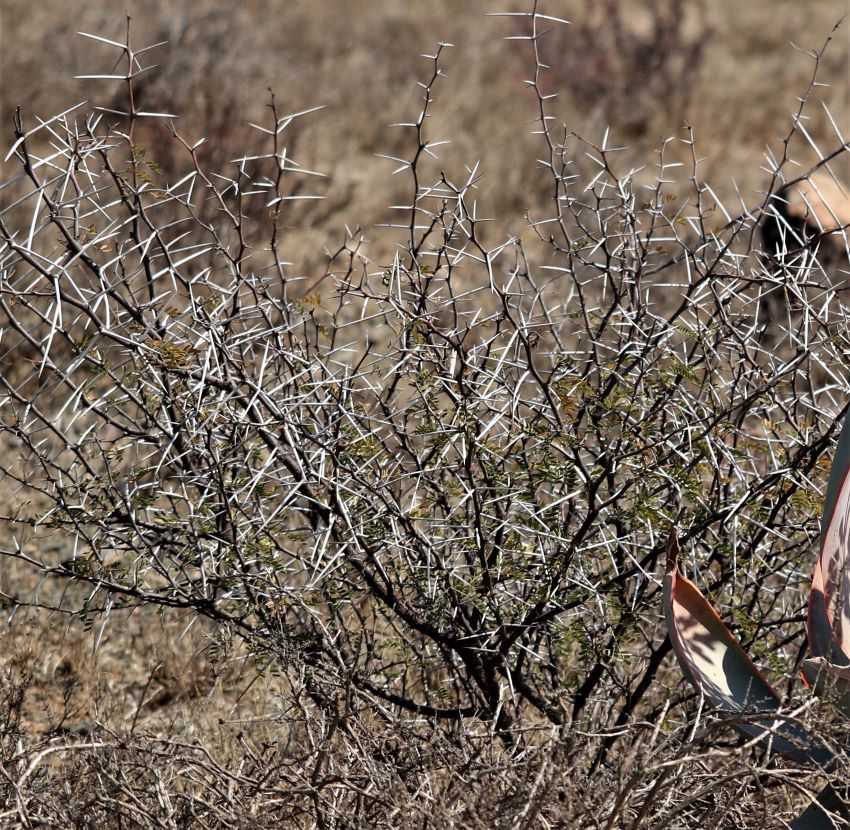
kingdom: Plantae
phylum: Tracheophyta
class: Magnoliopsida
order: Fabales
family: Fabaceae
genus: Vachellia
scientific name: Vachellia karroo
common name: Sweet thorn
